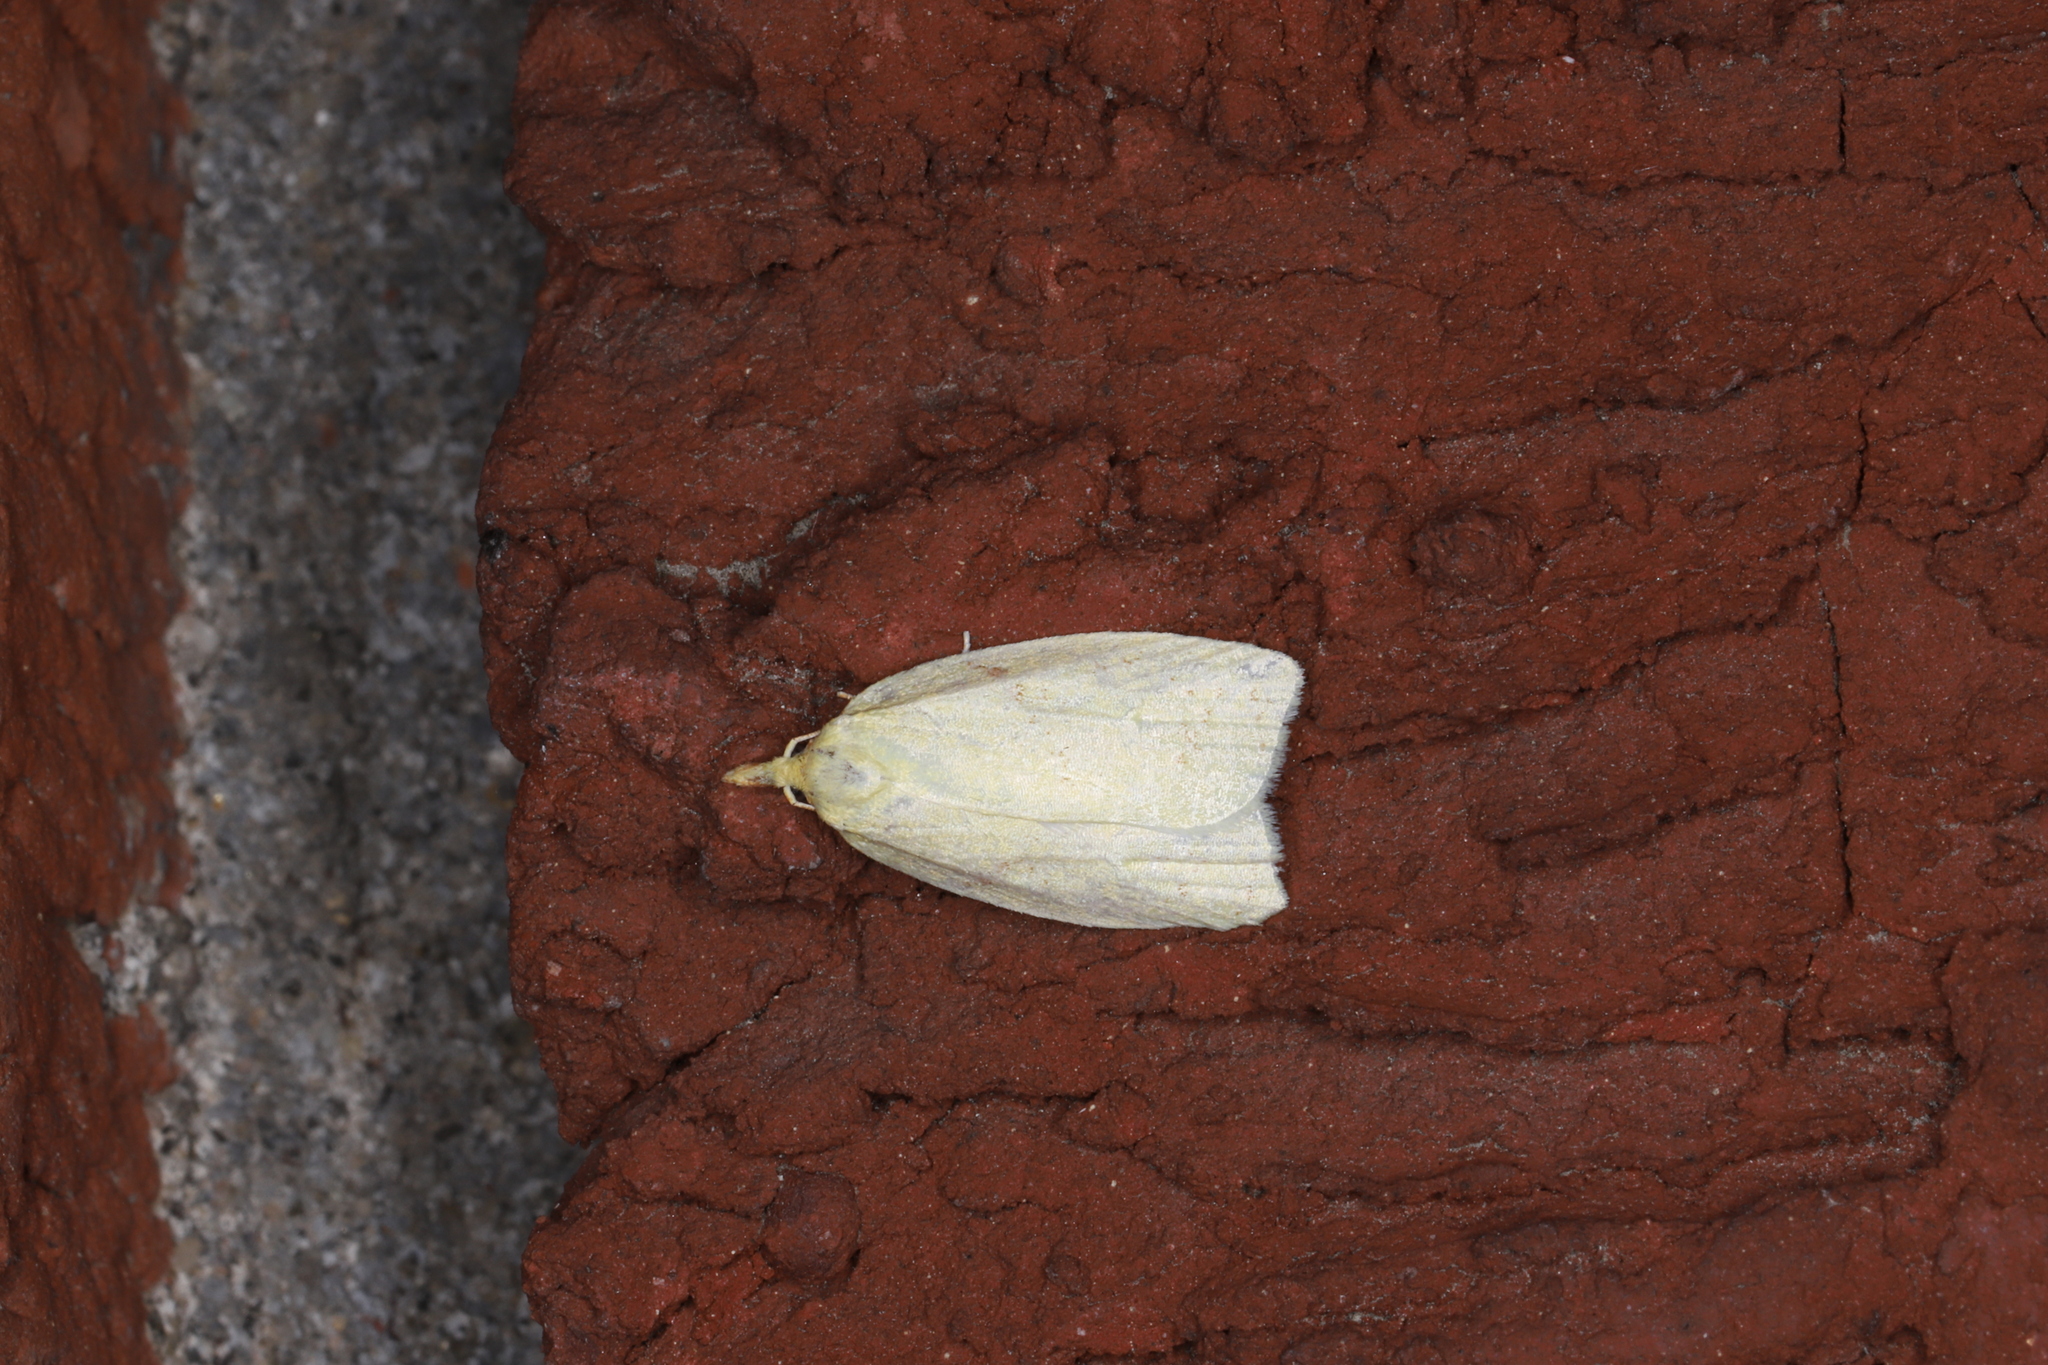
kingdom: Animalia
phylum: Arthropoda
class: Insecta
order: Lepidoptera
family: Tortricidae
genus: Cenopis
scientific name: Cenopis pettitana
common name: Maple-basswood leafroller moth
